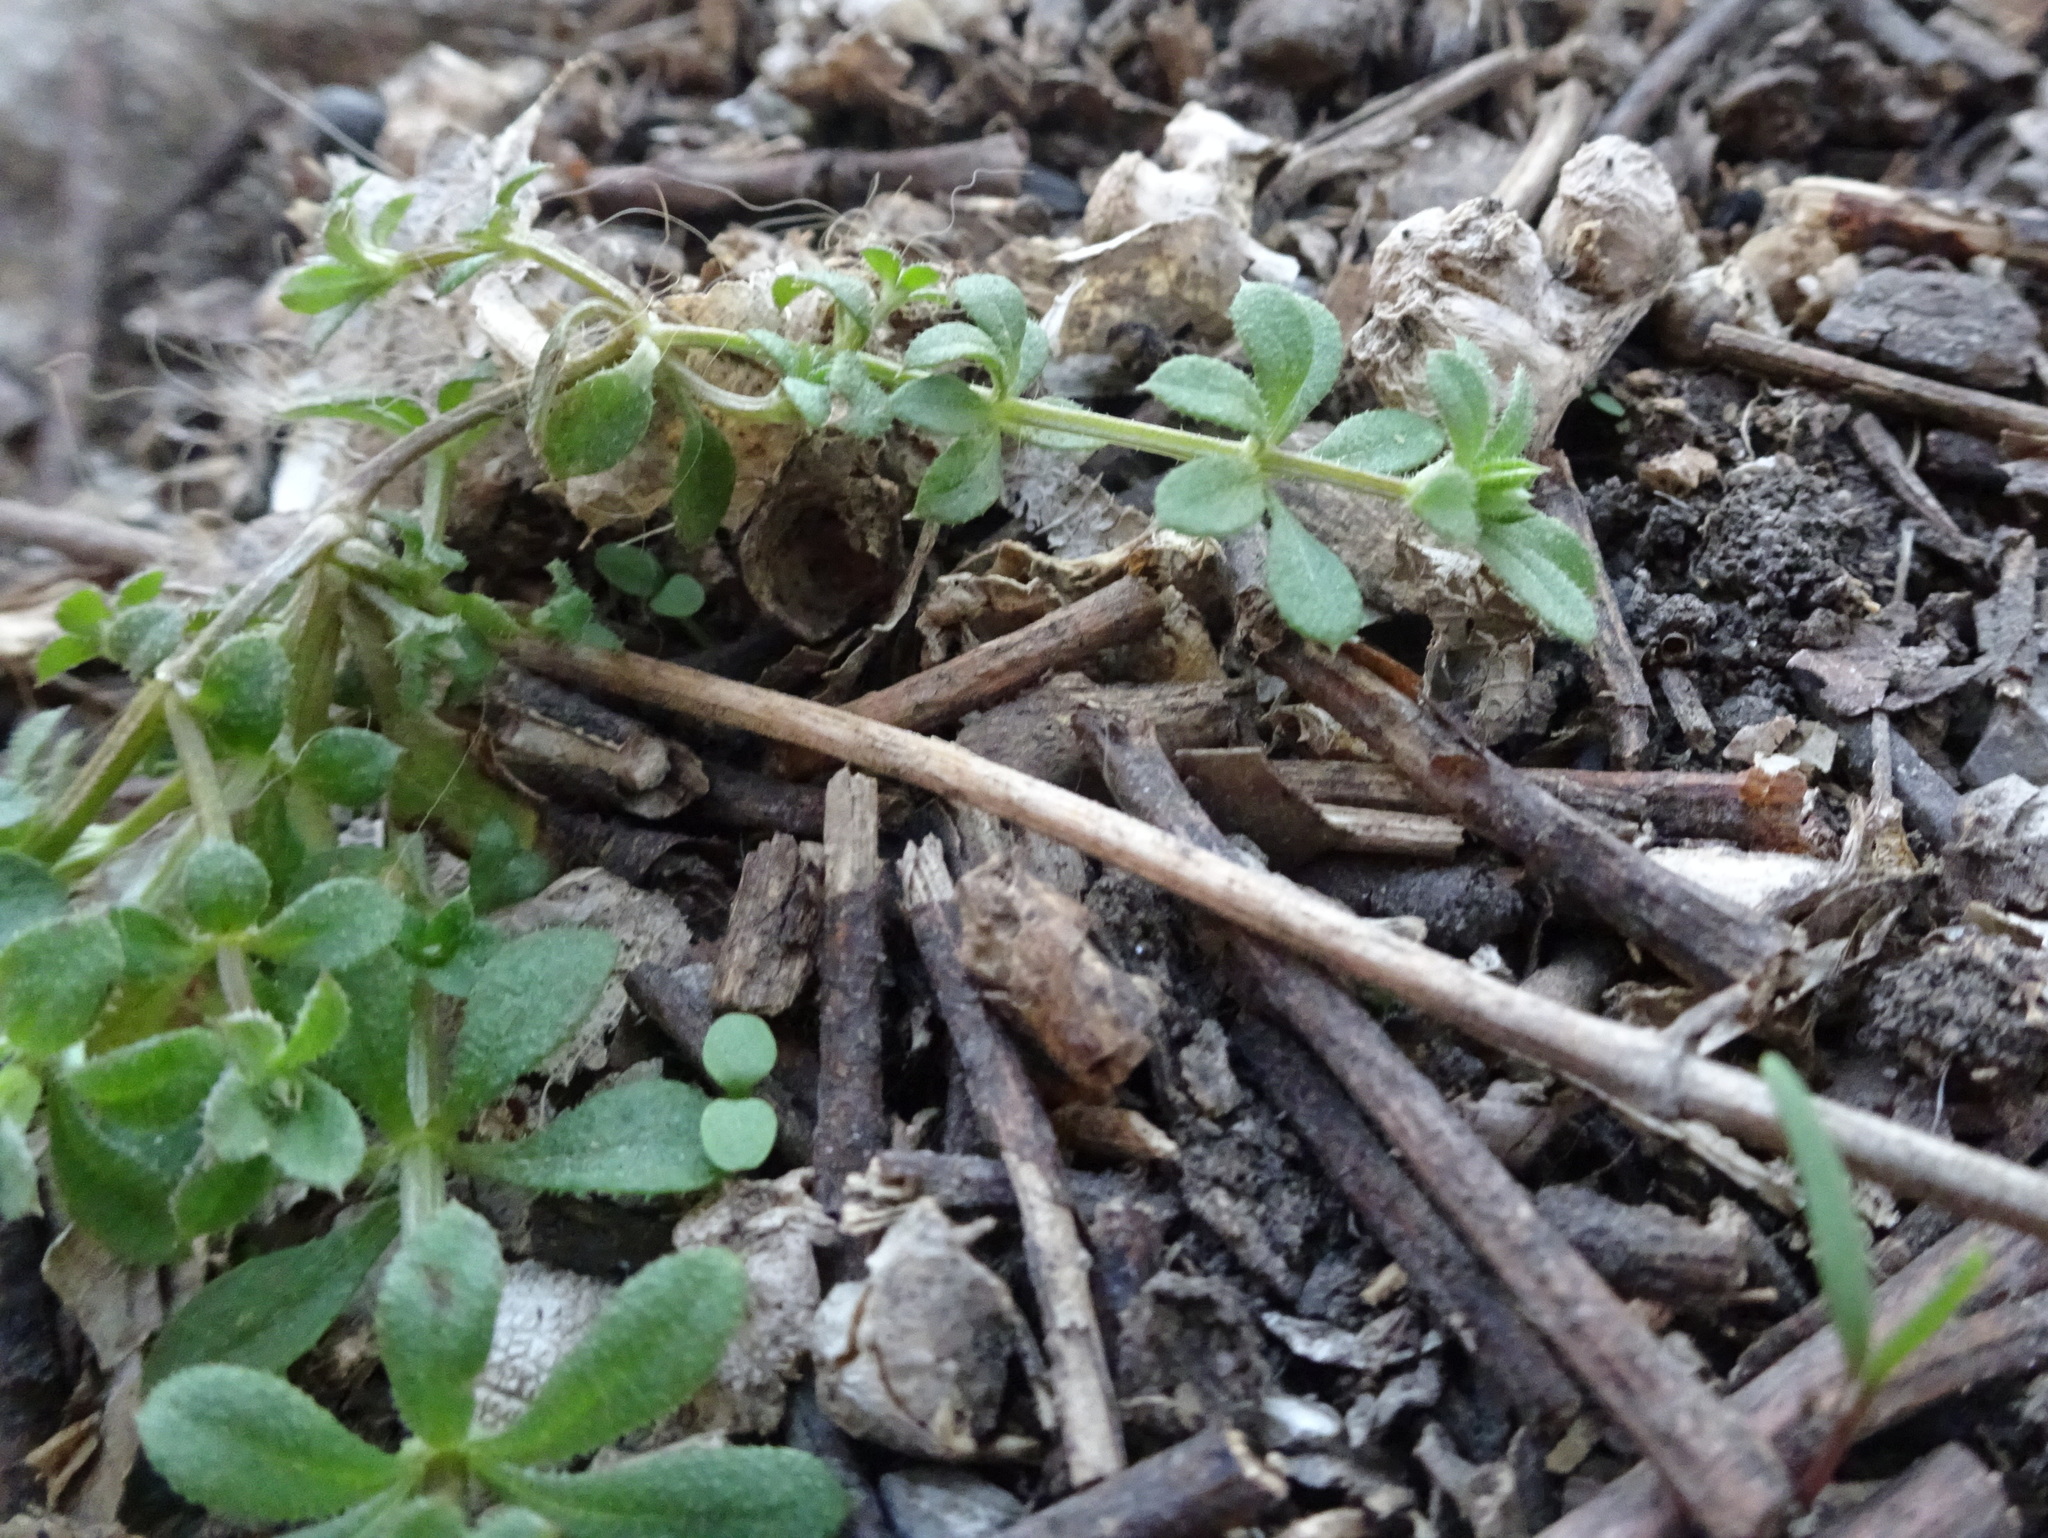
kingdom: Plantae
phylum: Tracheophyta
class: Magnoliopsida
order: Gentianales
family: Rubiaceae
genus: Galium
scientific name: Galium aparine
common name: Cleavers
